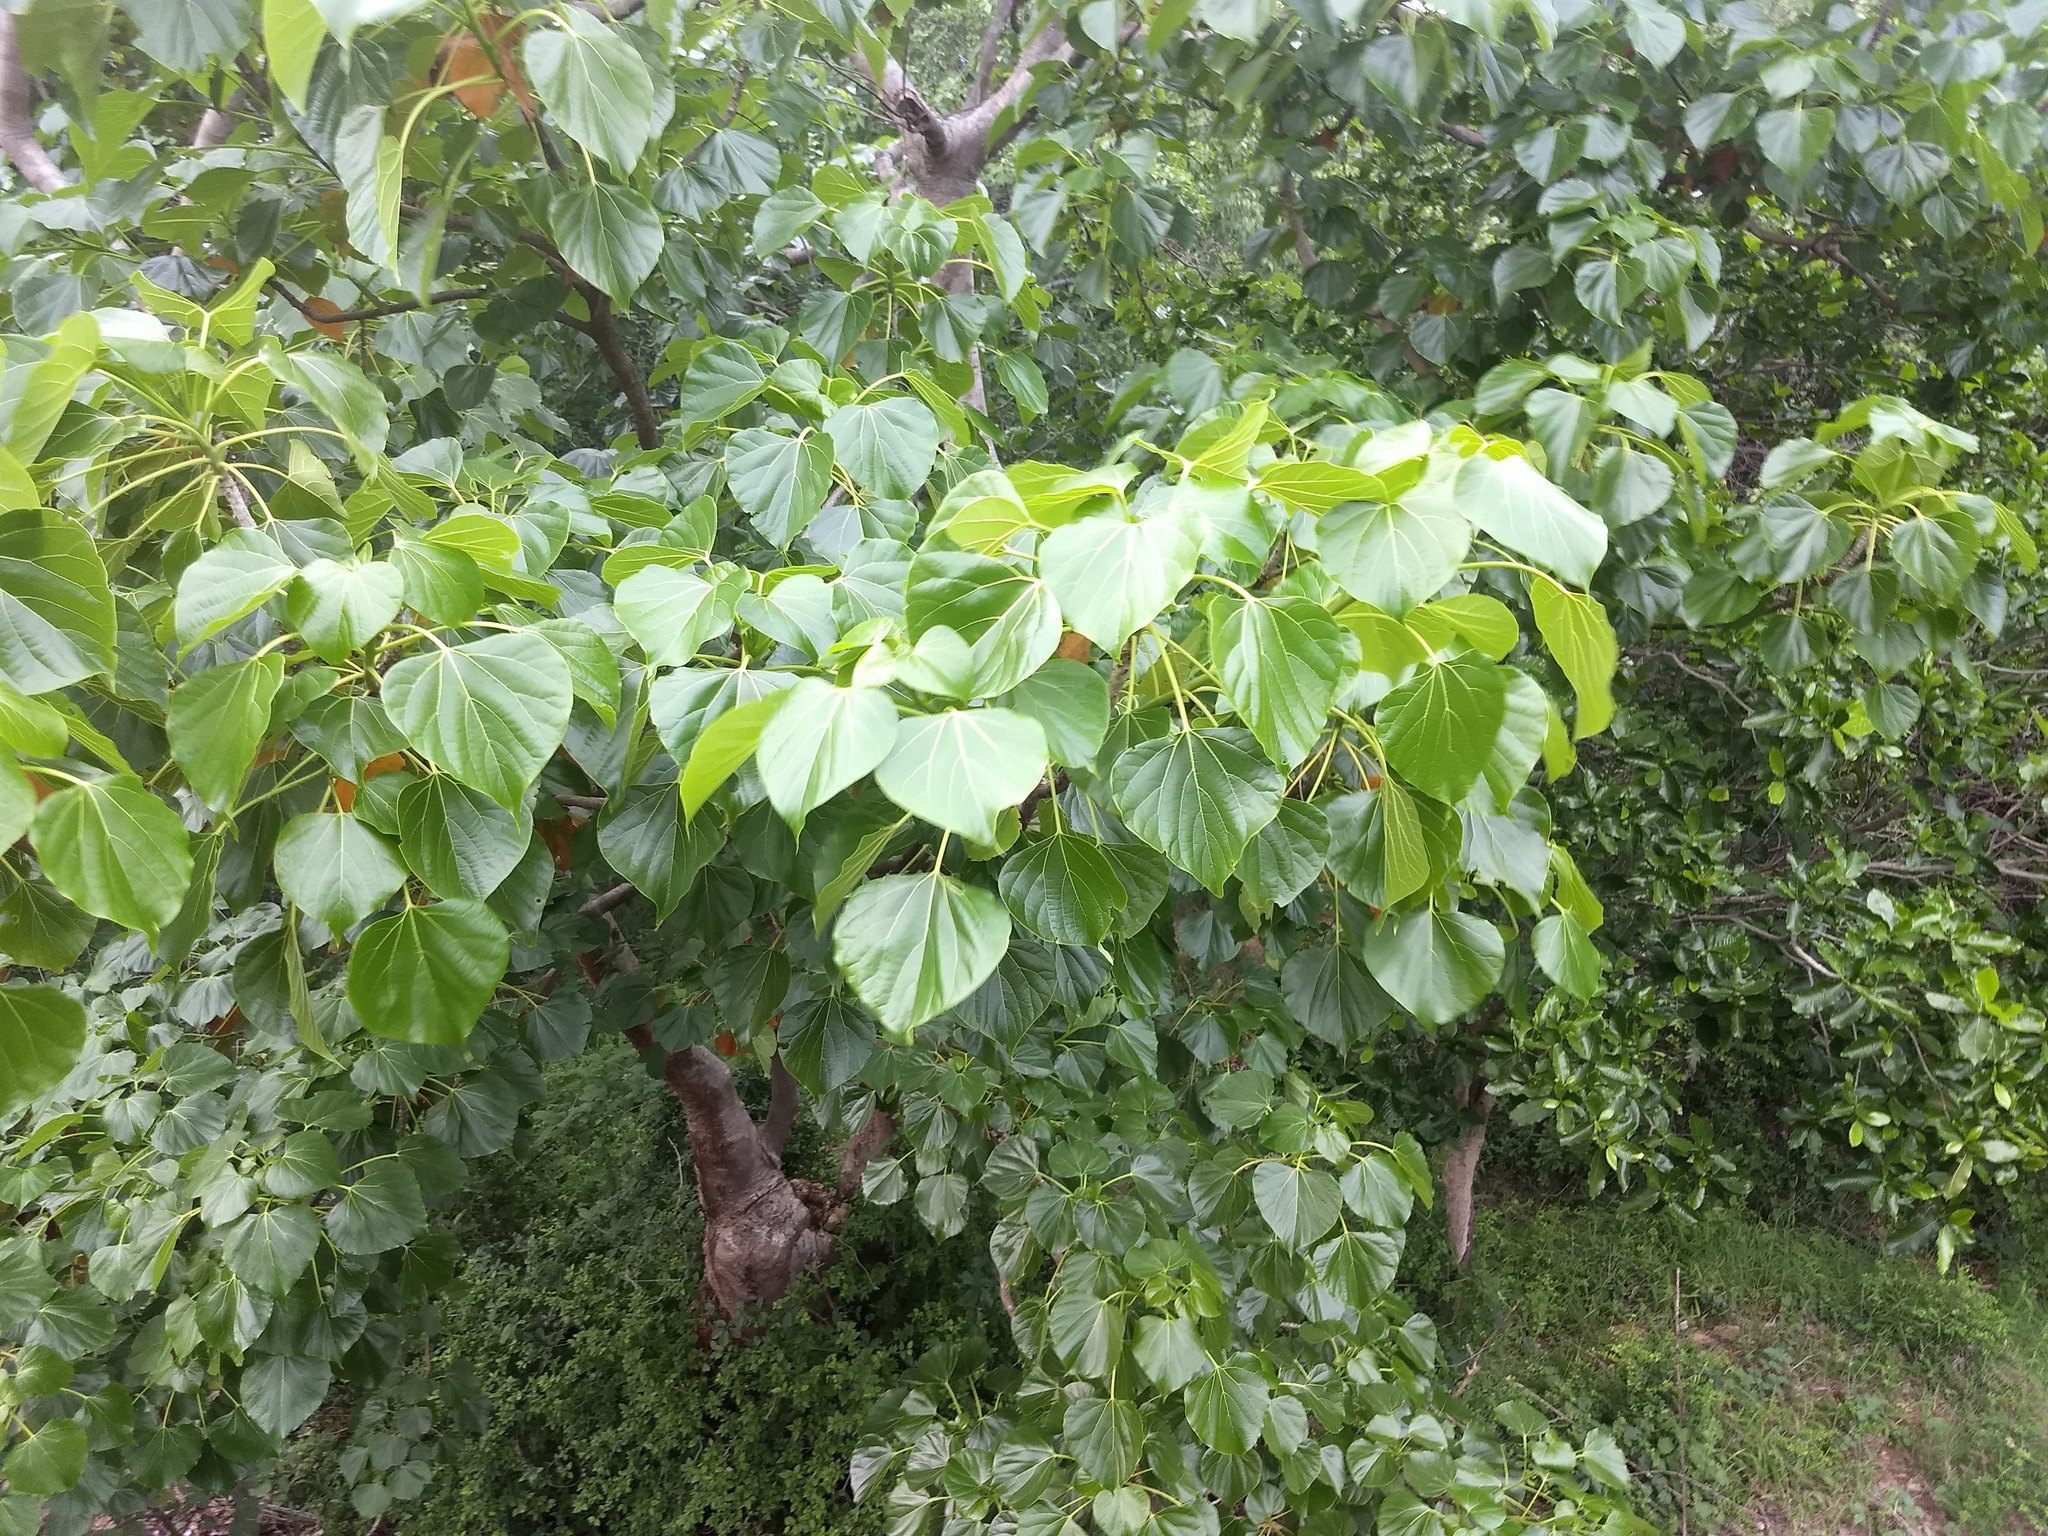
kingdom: Plantae
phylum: Tracheophyta
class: Magnoliopsida
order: Laurales
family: Hernandiaceae
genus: Gyrocarpus
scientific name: Gyrocarpus americanus
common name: Gyro damson
